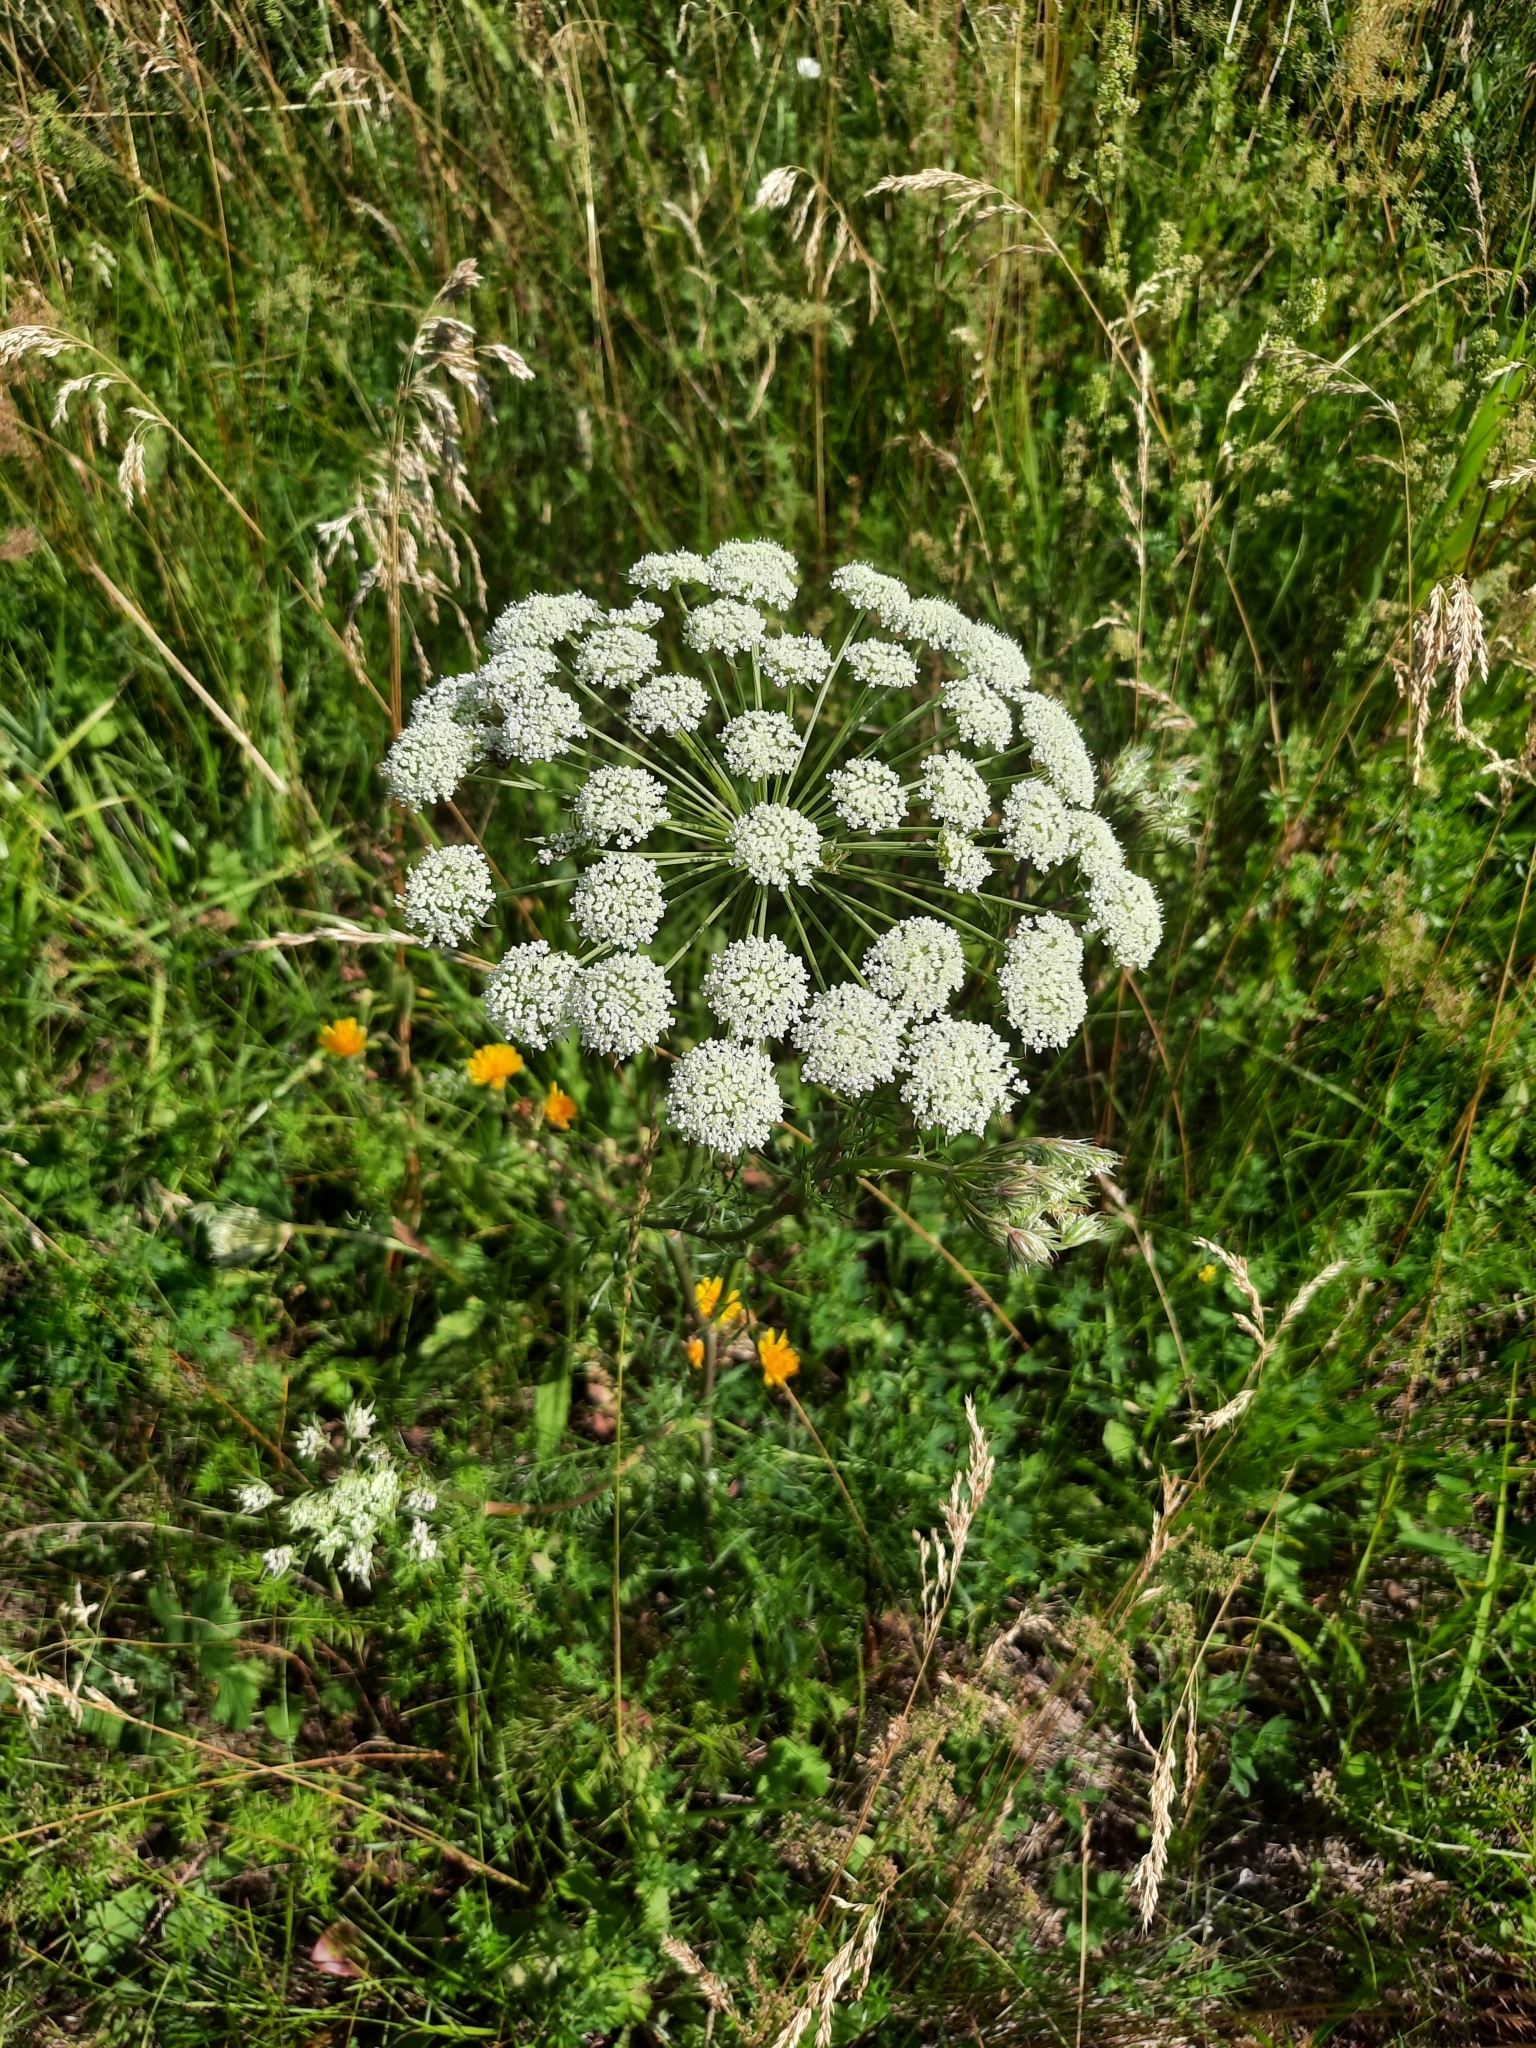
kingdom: Plantae
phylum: Tracheophyta
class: Magnoliopsida
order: Apiales
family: Apiaceae
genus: Seseli
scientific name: Seseli annuum
